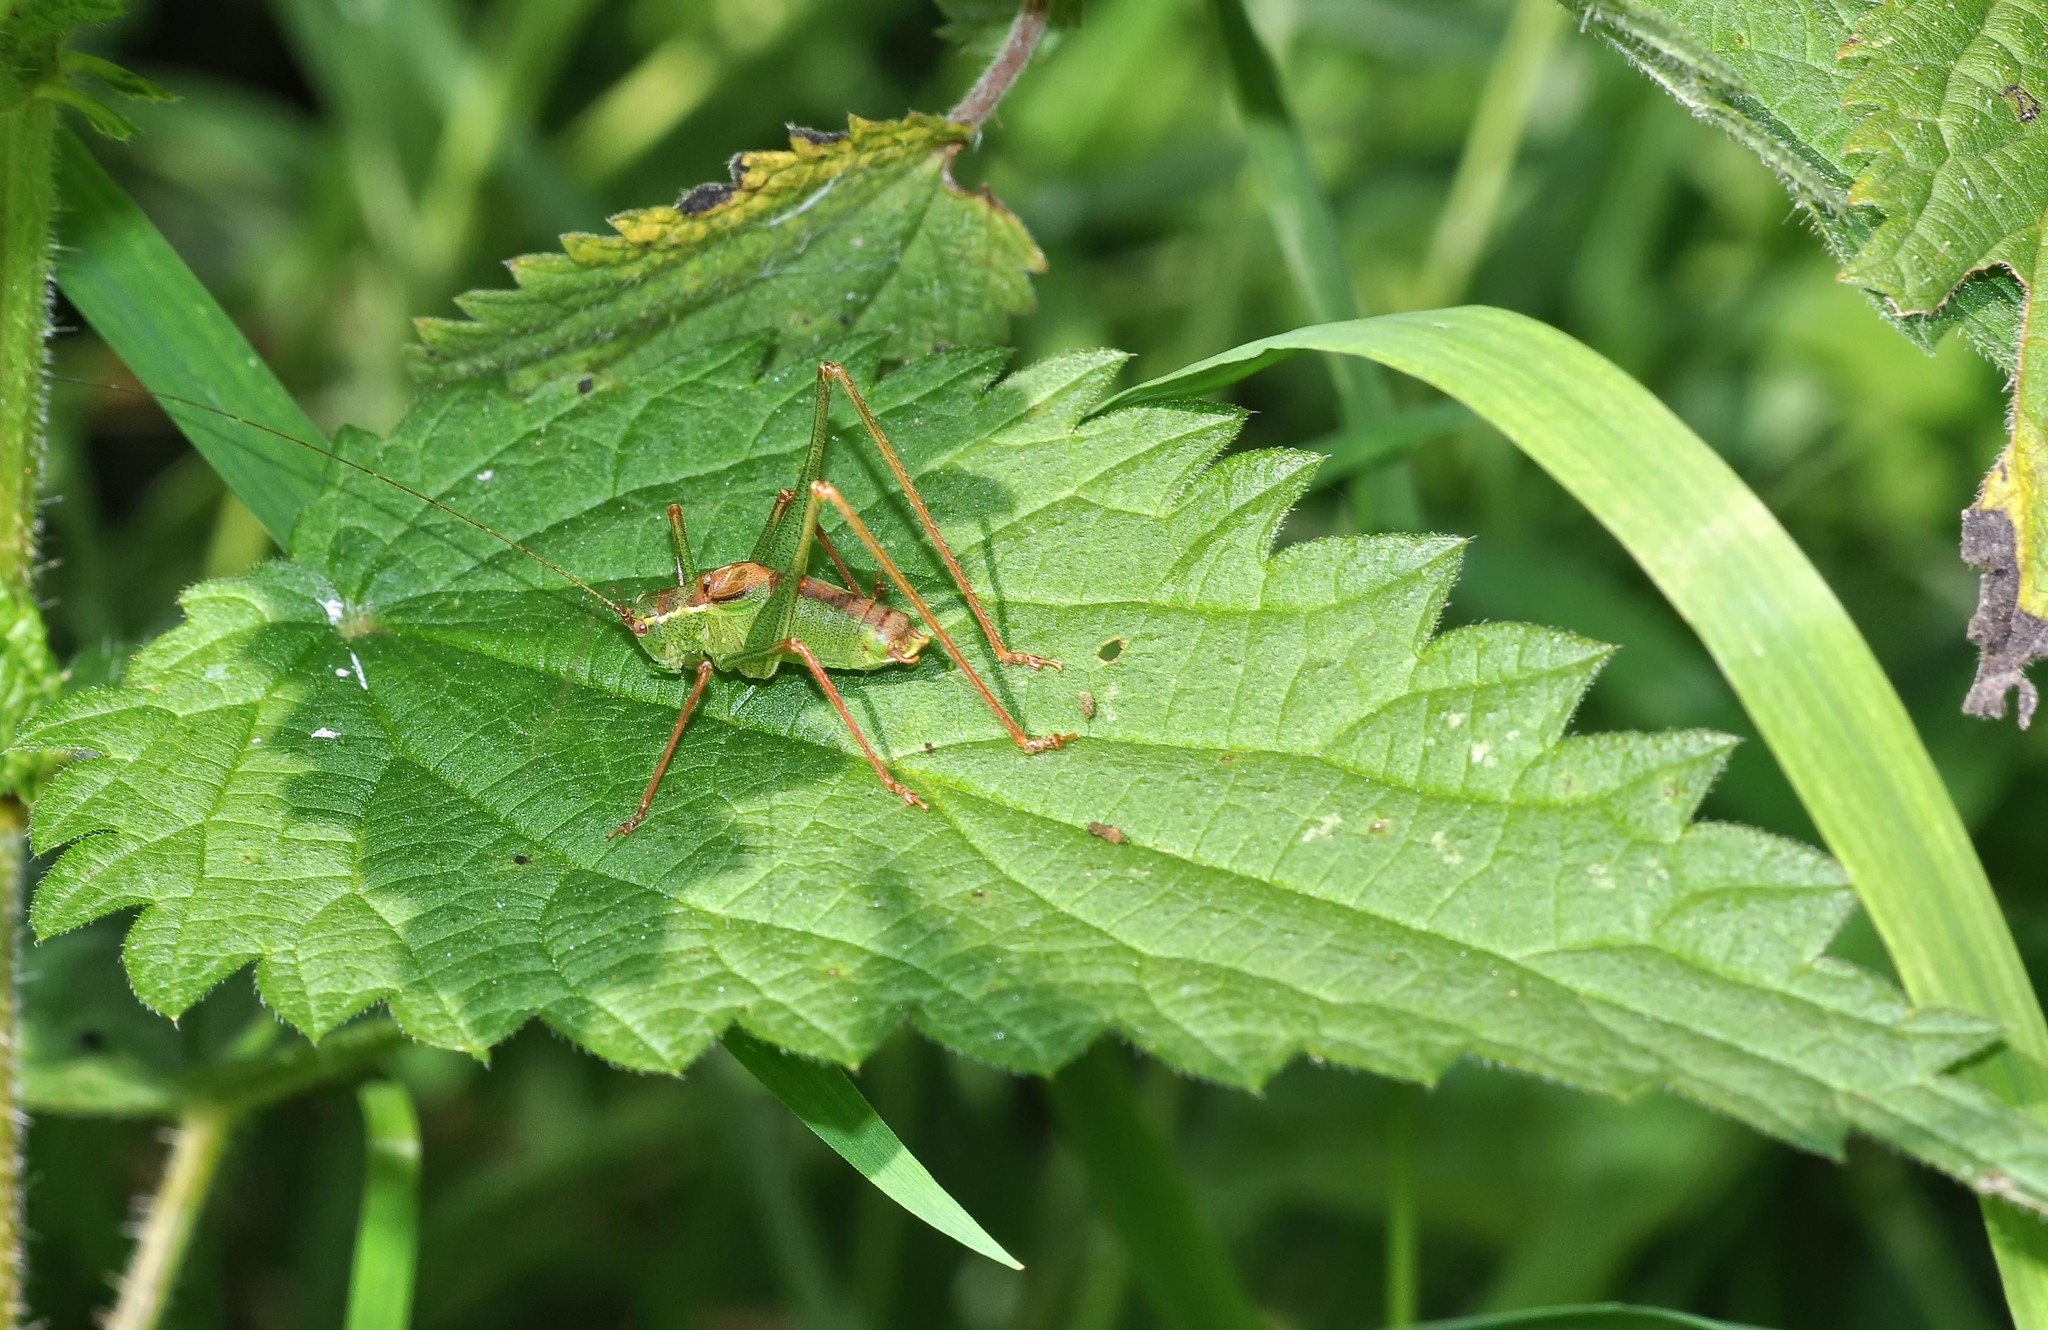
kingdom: Animalia
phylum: Arthropoda
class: Insecta
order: Orthoptera
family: Tettigoniidae
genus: Leptophyes
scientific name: Leptophyes punctatissima
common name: Speckled bush-cricket
